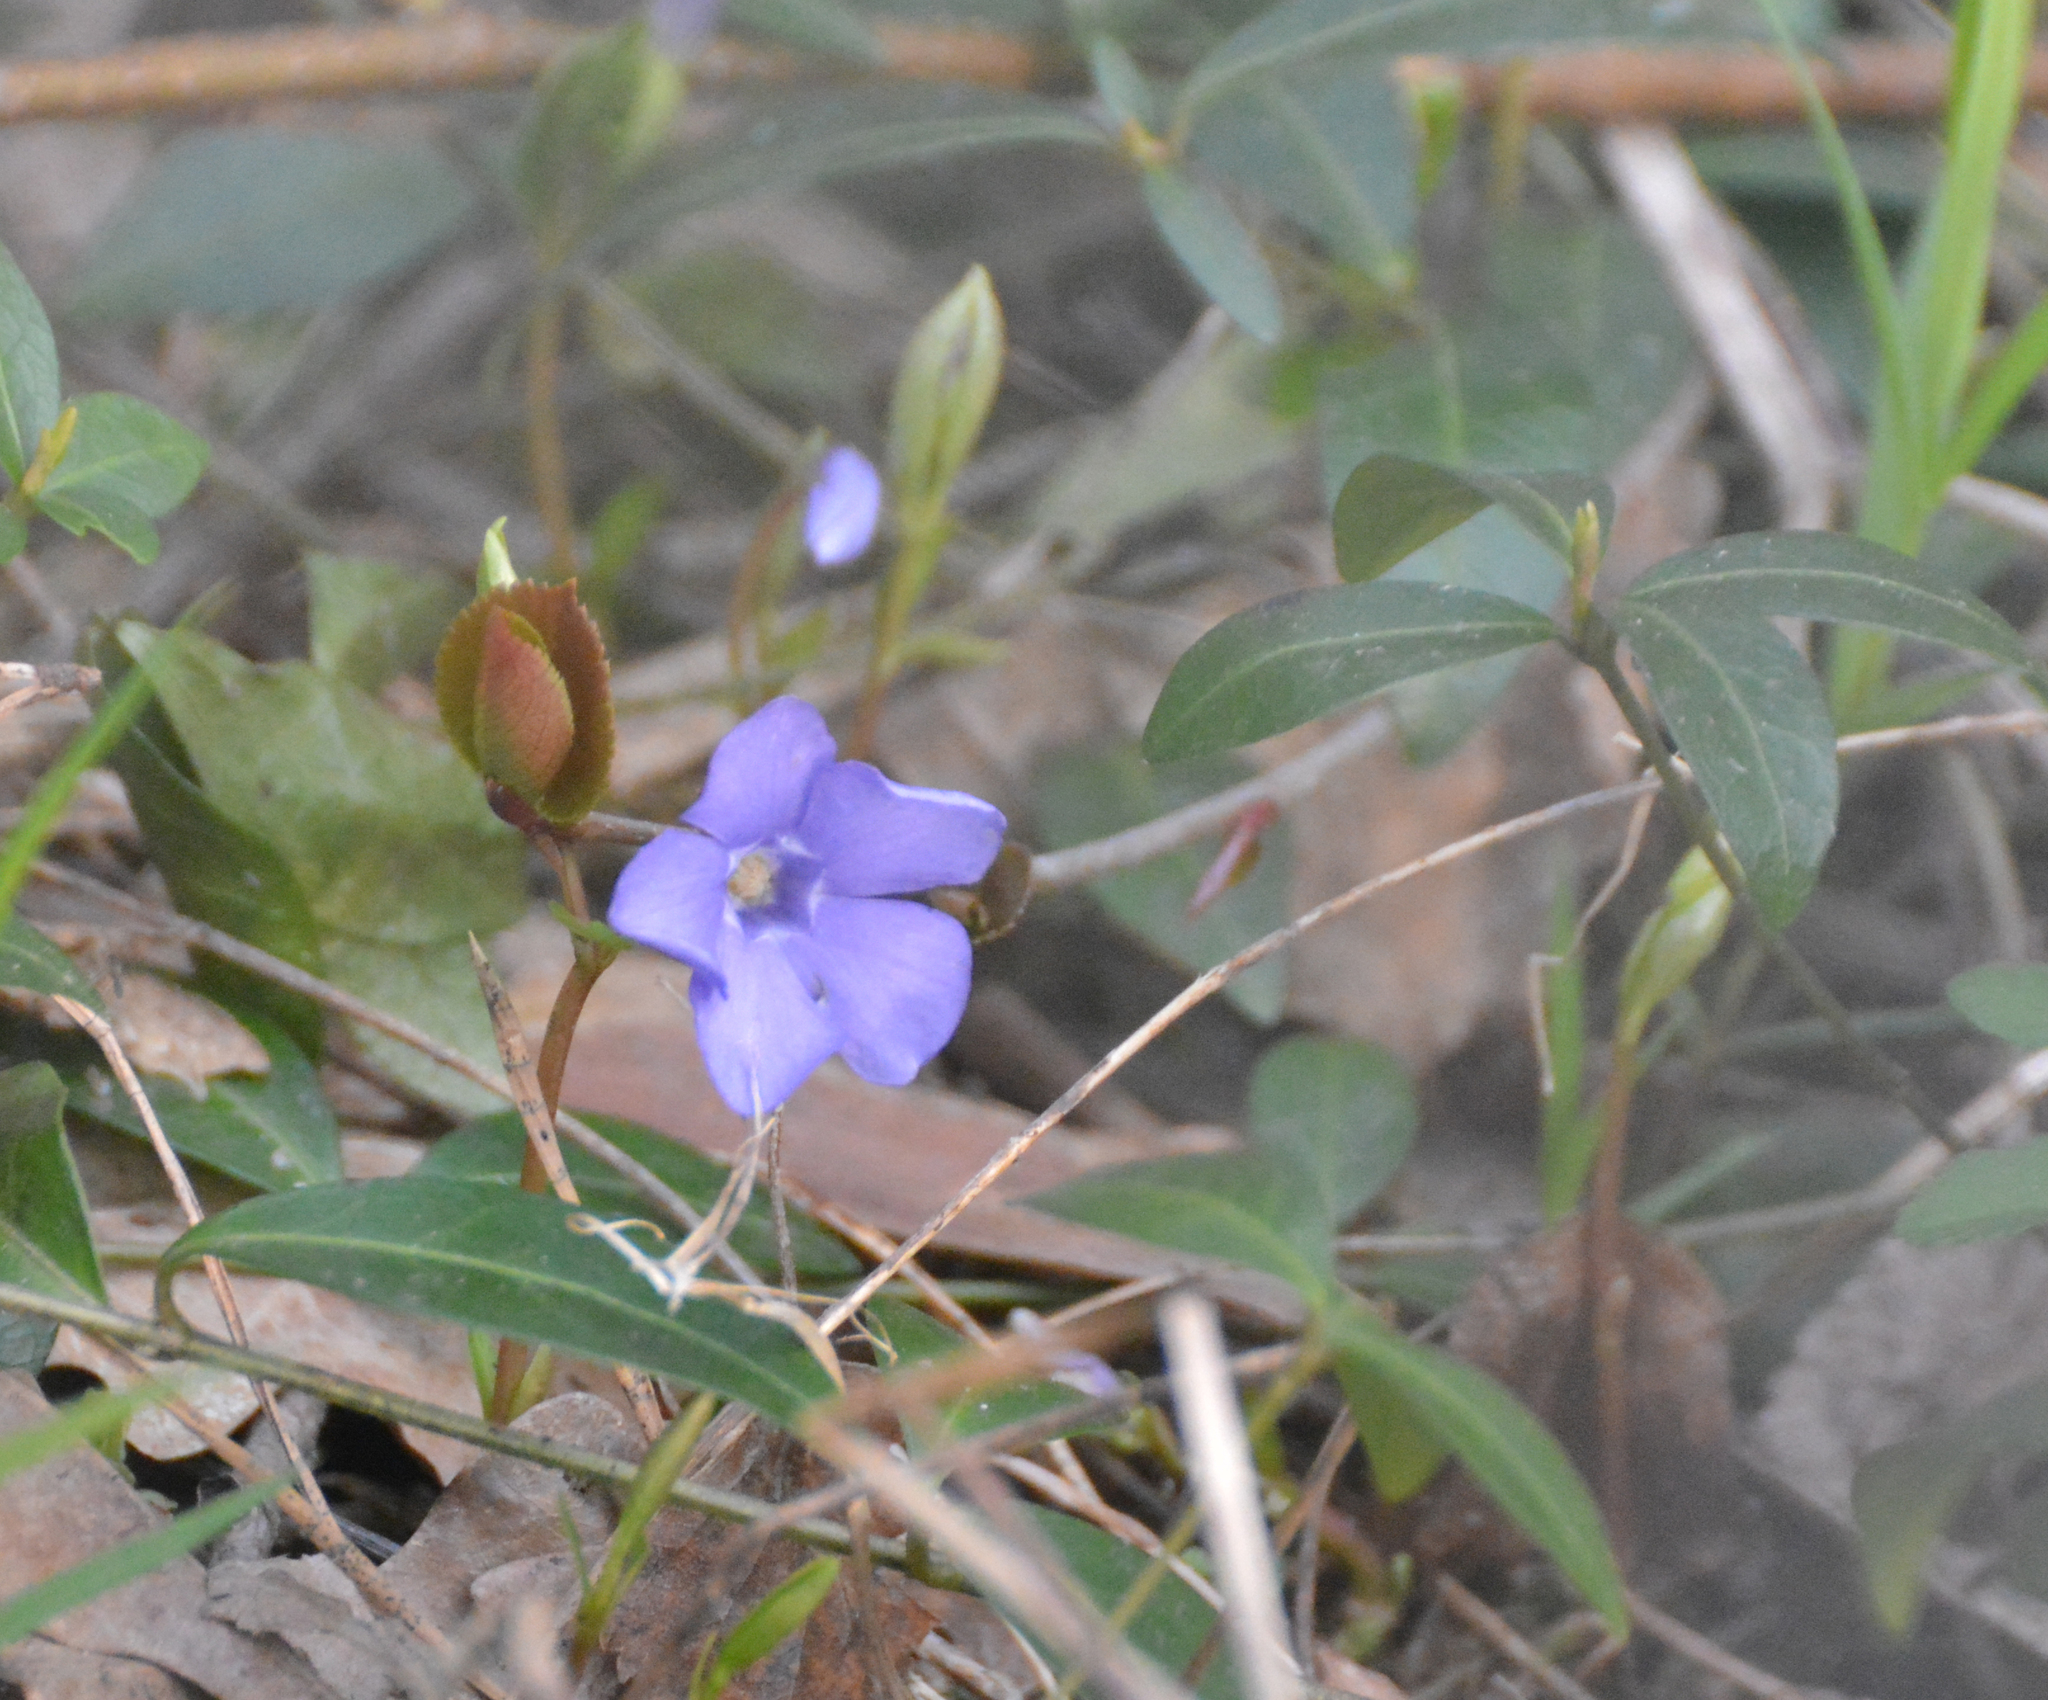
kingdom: Plantae
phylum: Tracheophyta
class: Magnoliopsida
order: Gentianales
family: Apocynaceae
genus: Vinca
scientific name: Vinca minor
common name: Lesser periwinkle
